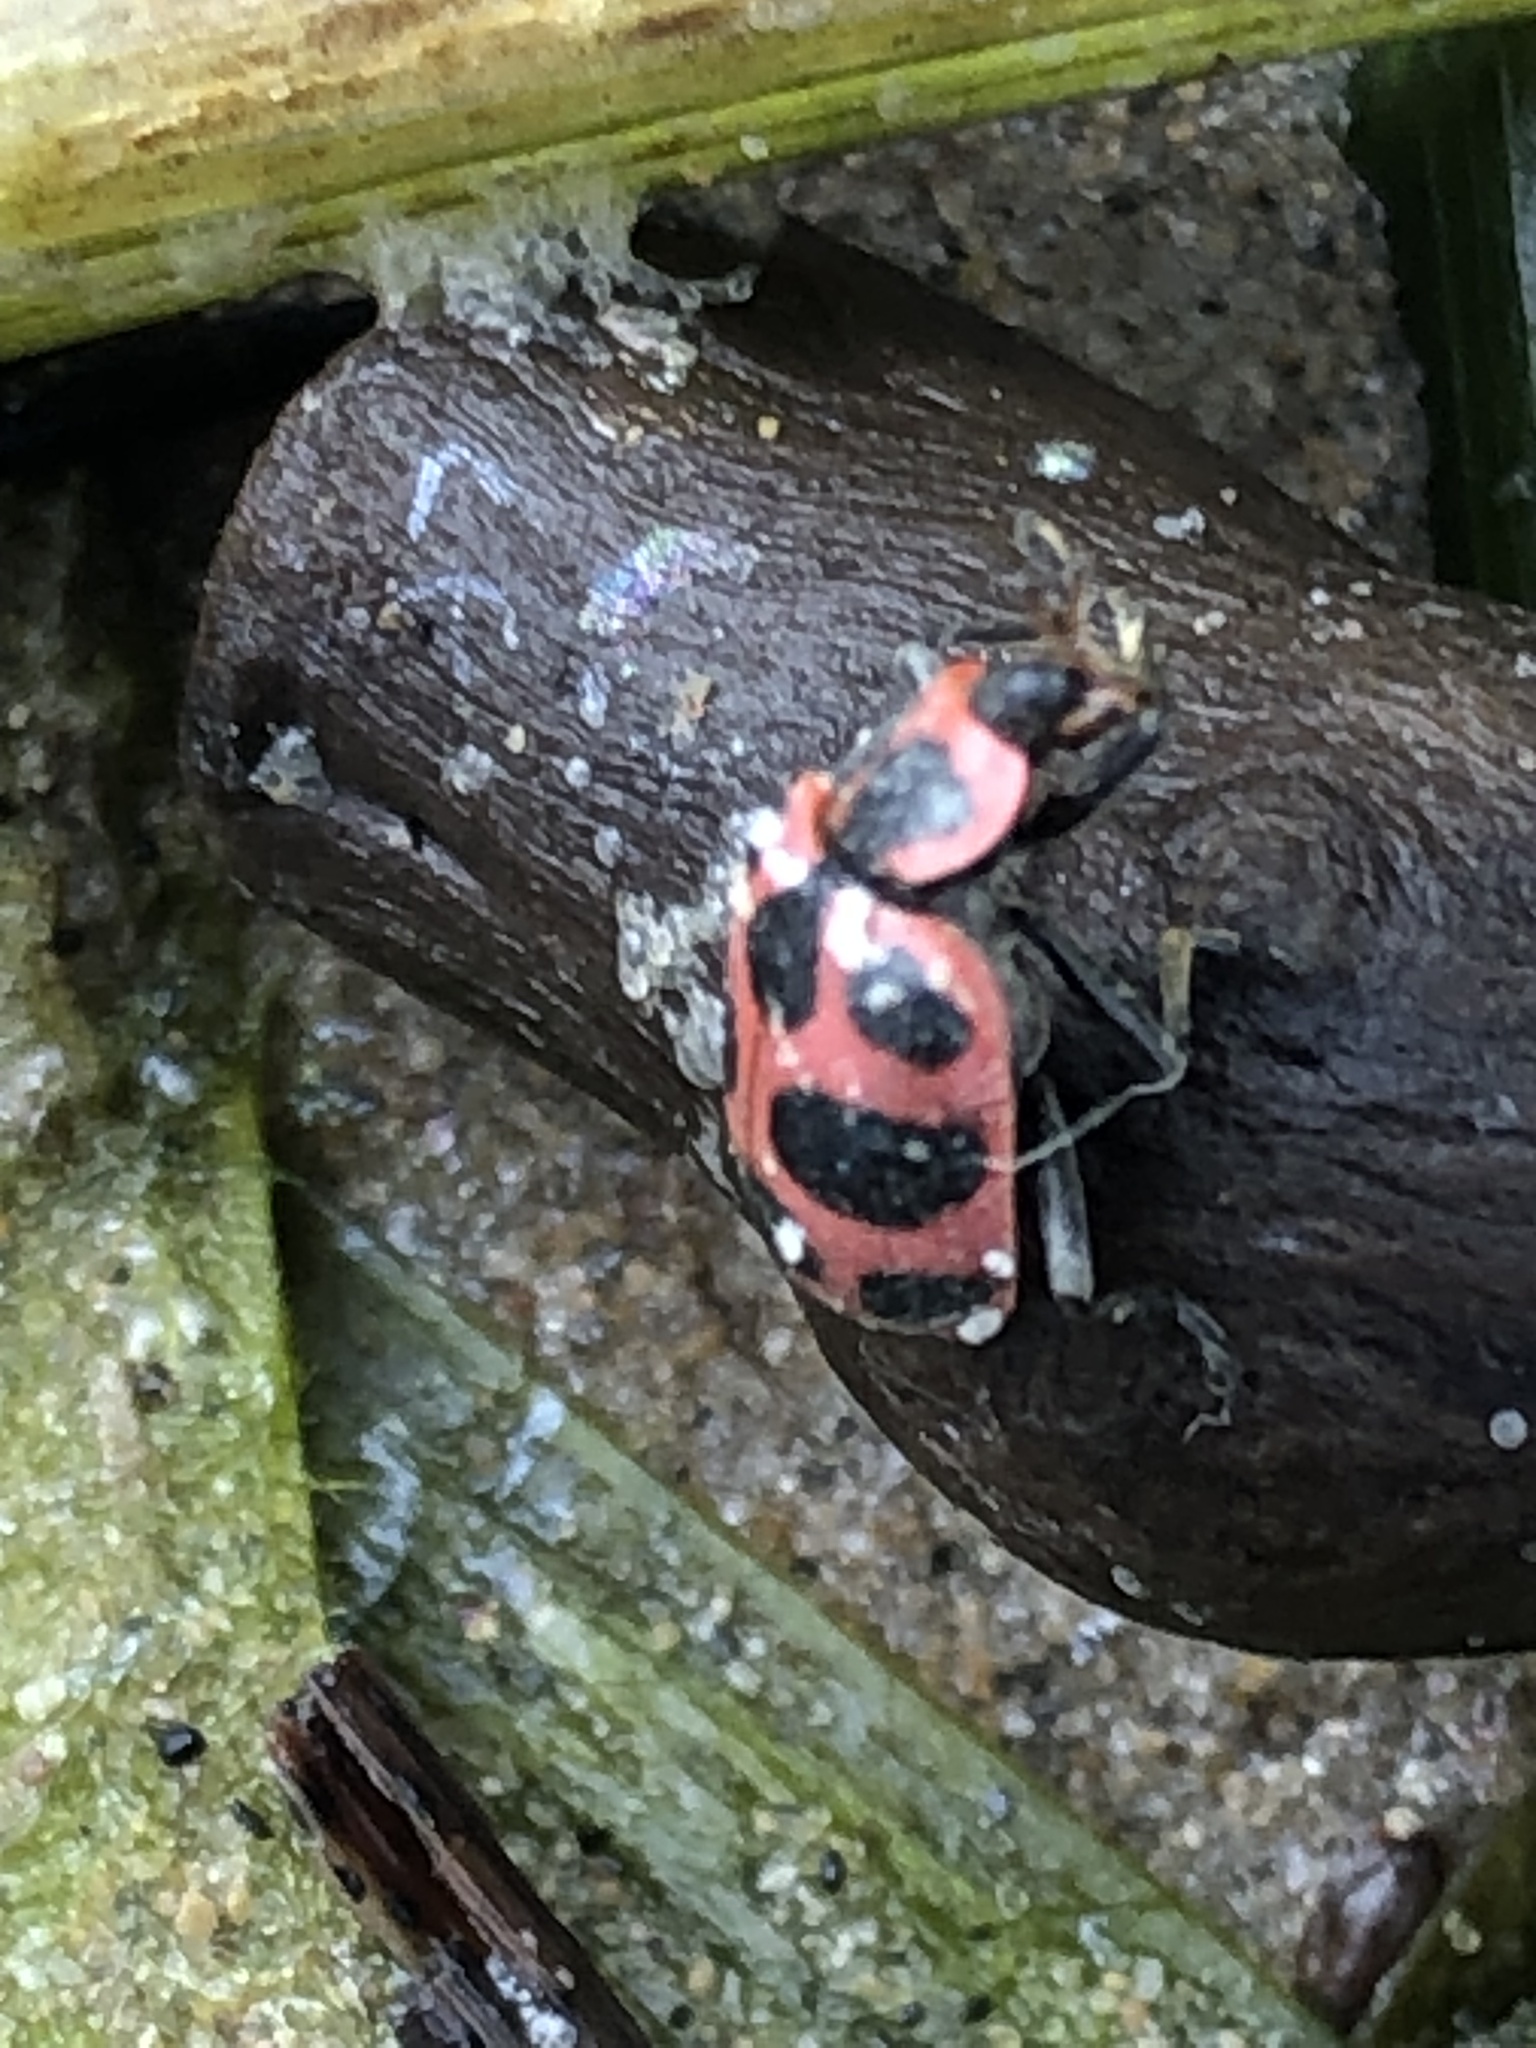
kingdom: Animalia
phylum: Arthropoda
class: Insecta
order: Coleoptera
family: Coccinellidae
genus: Coleomegilla
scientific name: Coleomegilla maculata
